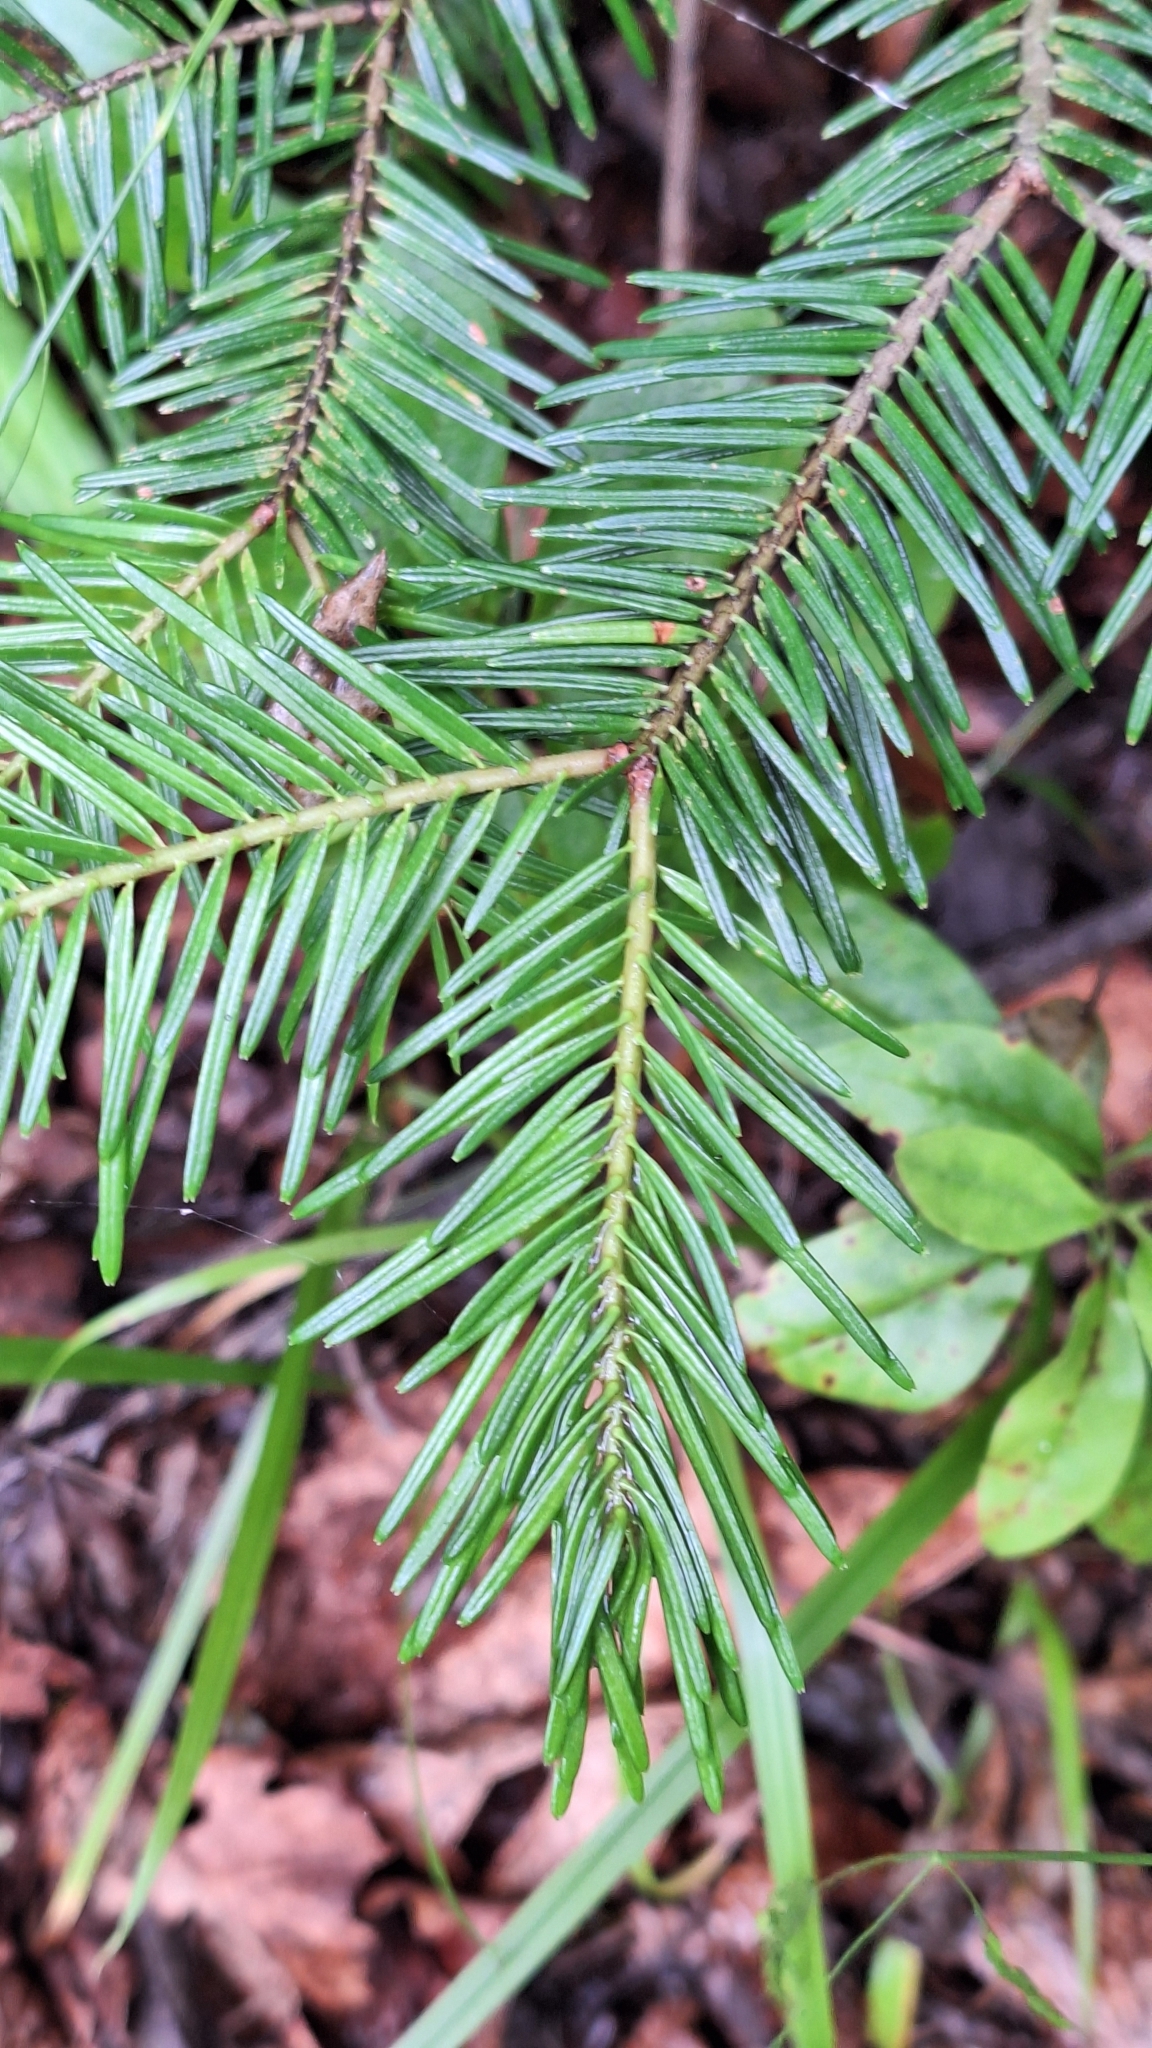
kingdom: Plantae
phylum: Tracheophyta
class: Pinopsida
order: Pinales
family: Pinaceae
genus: Abies
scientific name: Abies nephrolepis
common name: Hinggan fir
